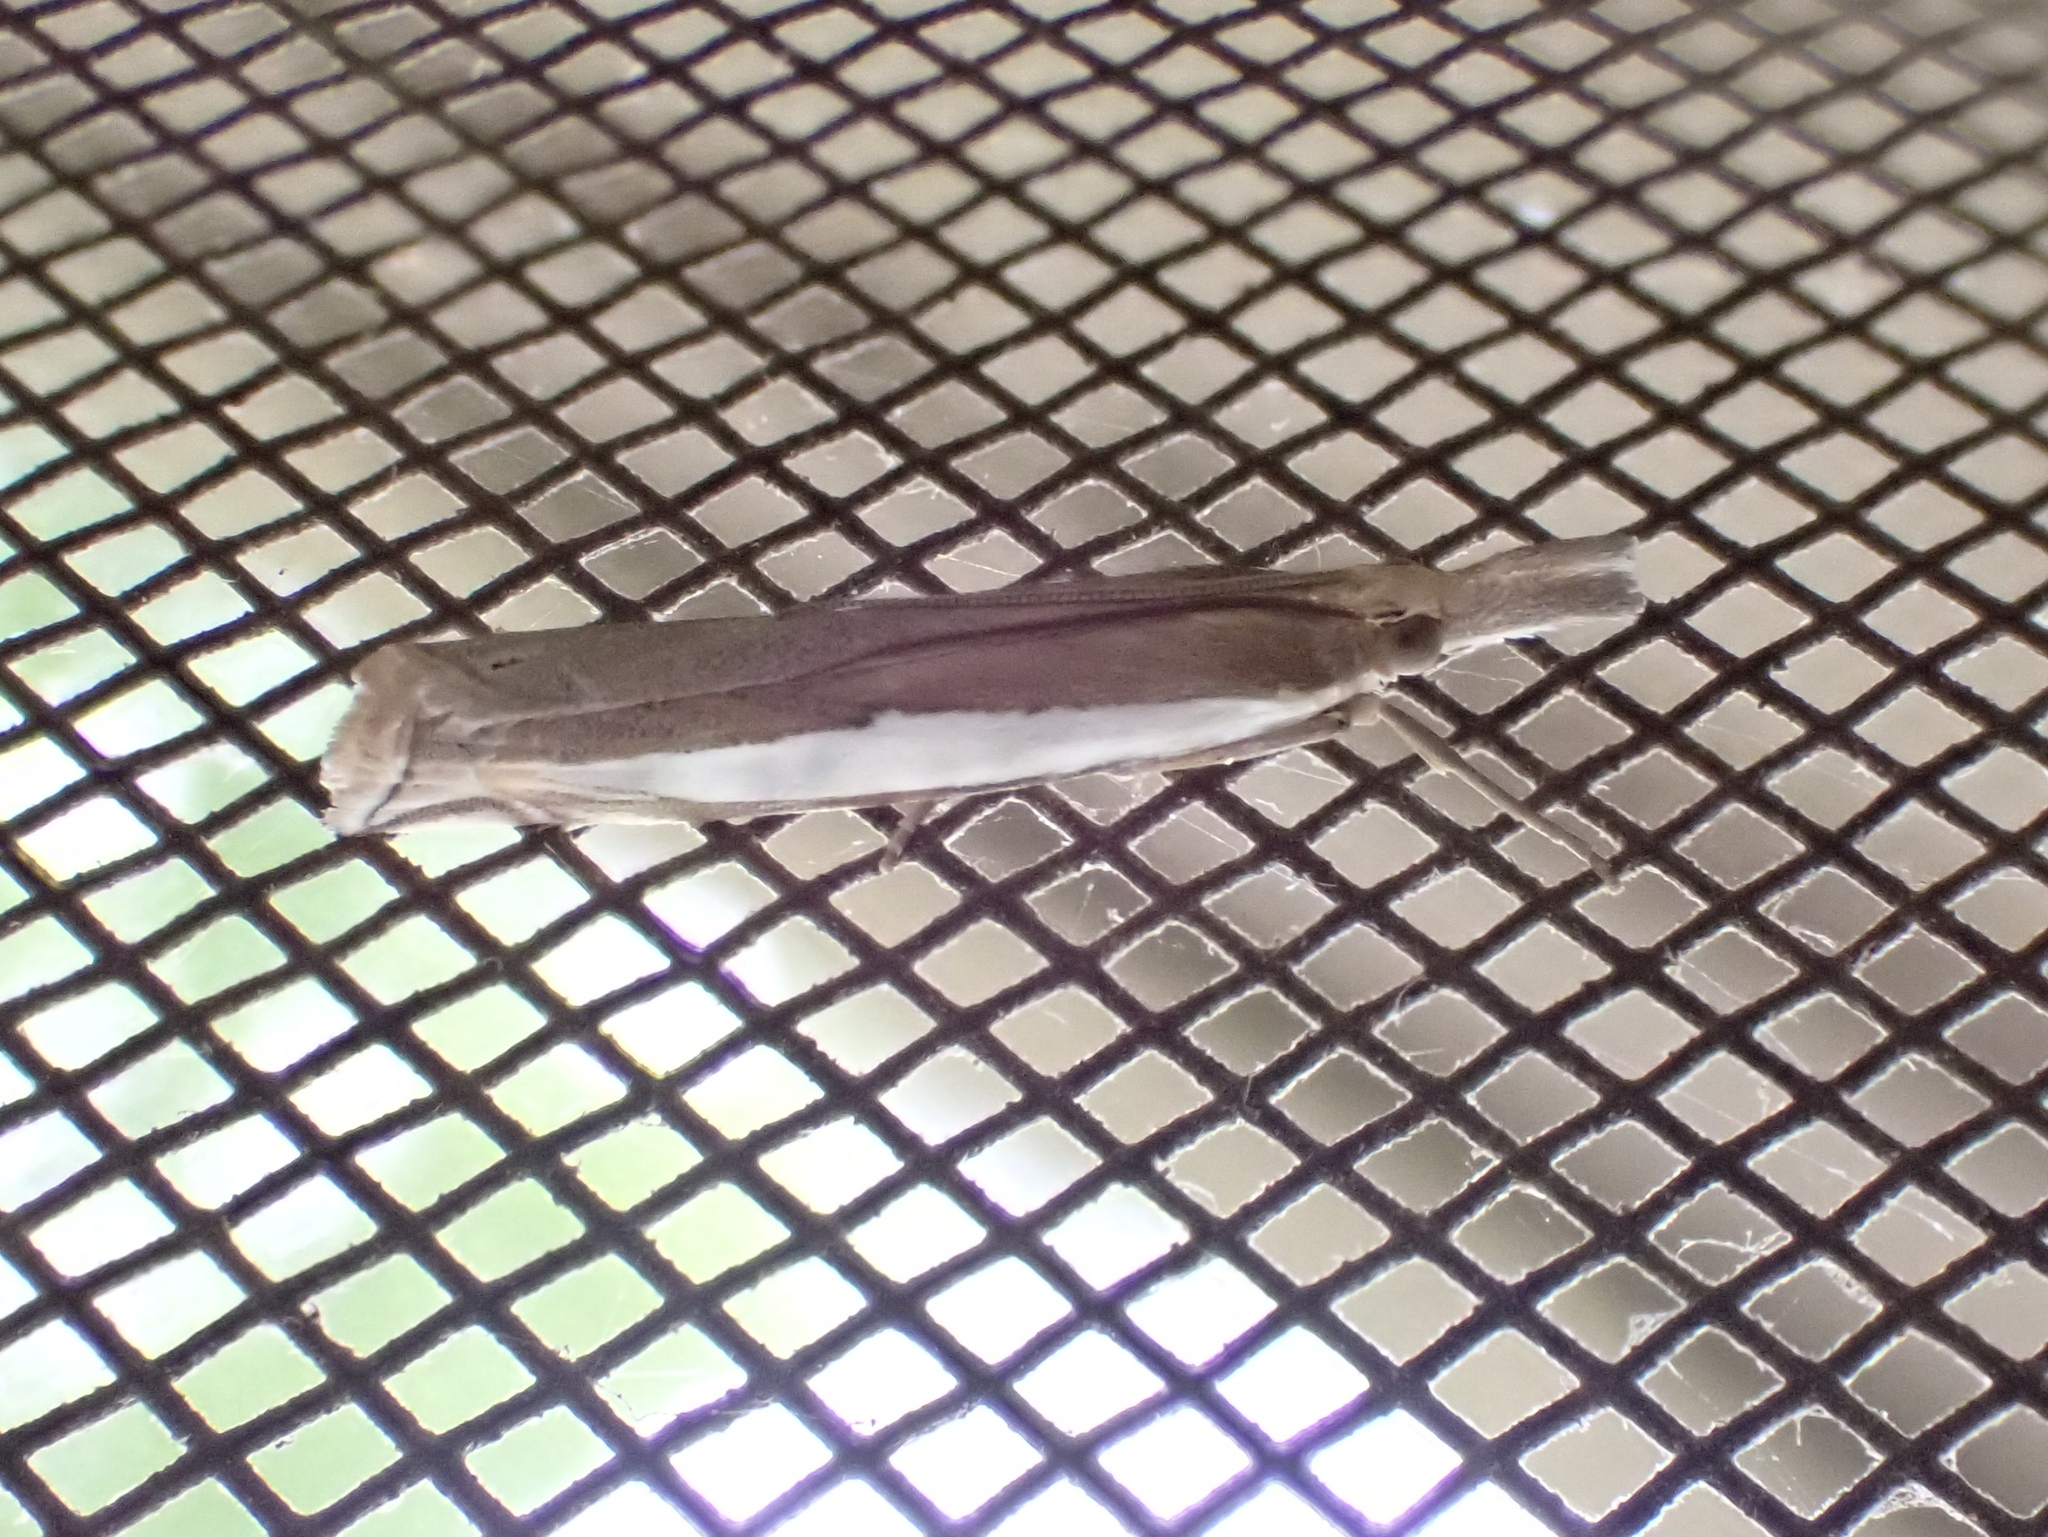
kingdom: Animalia
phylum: Arthropoda
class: Insecta
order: Lepidoptera
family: Crambidae
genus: Crambus
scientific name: Crambus leachellus
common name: Leach's grass-veneer
